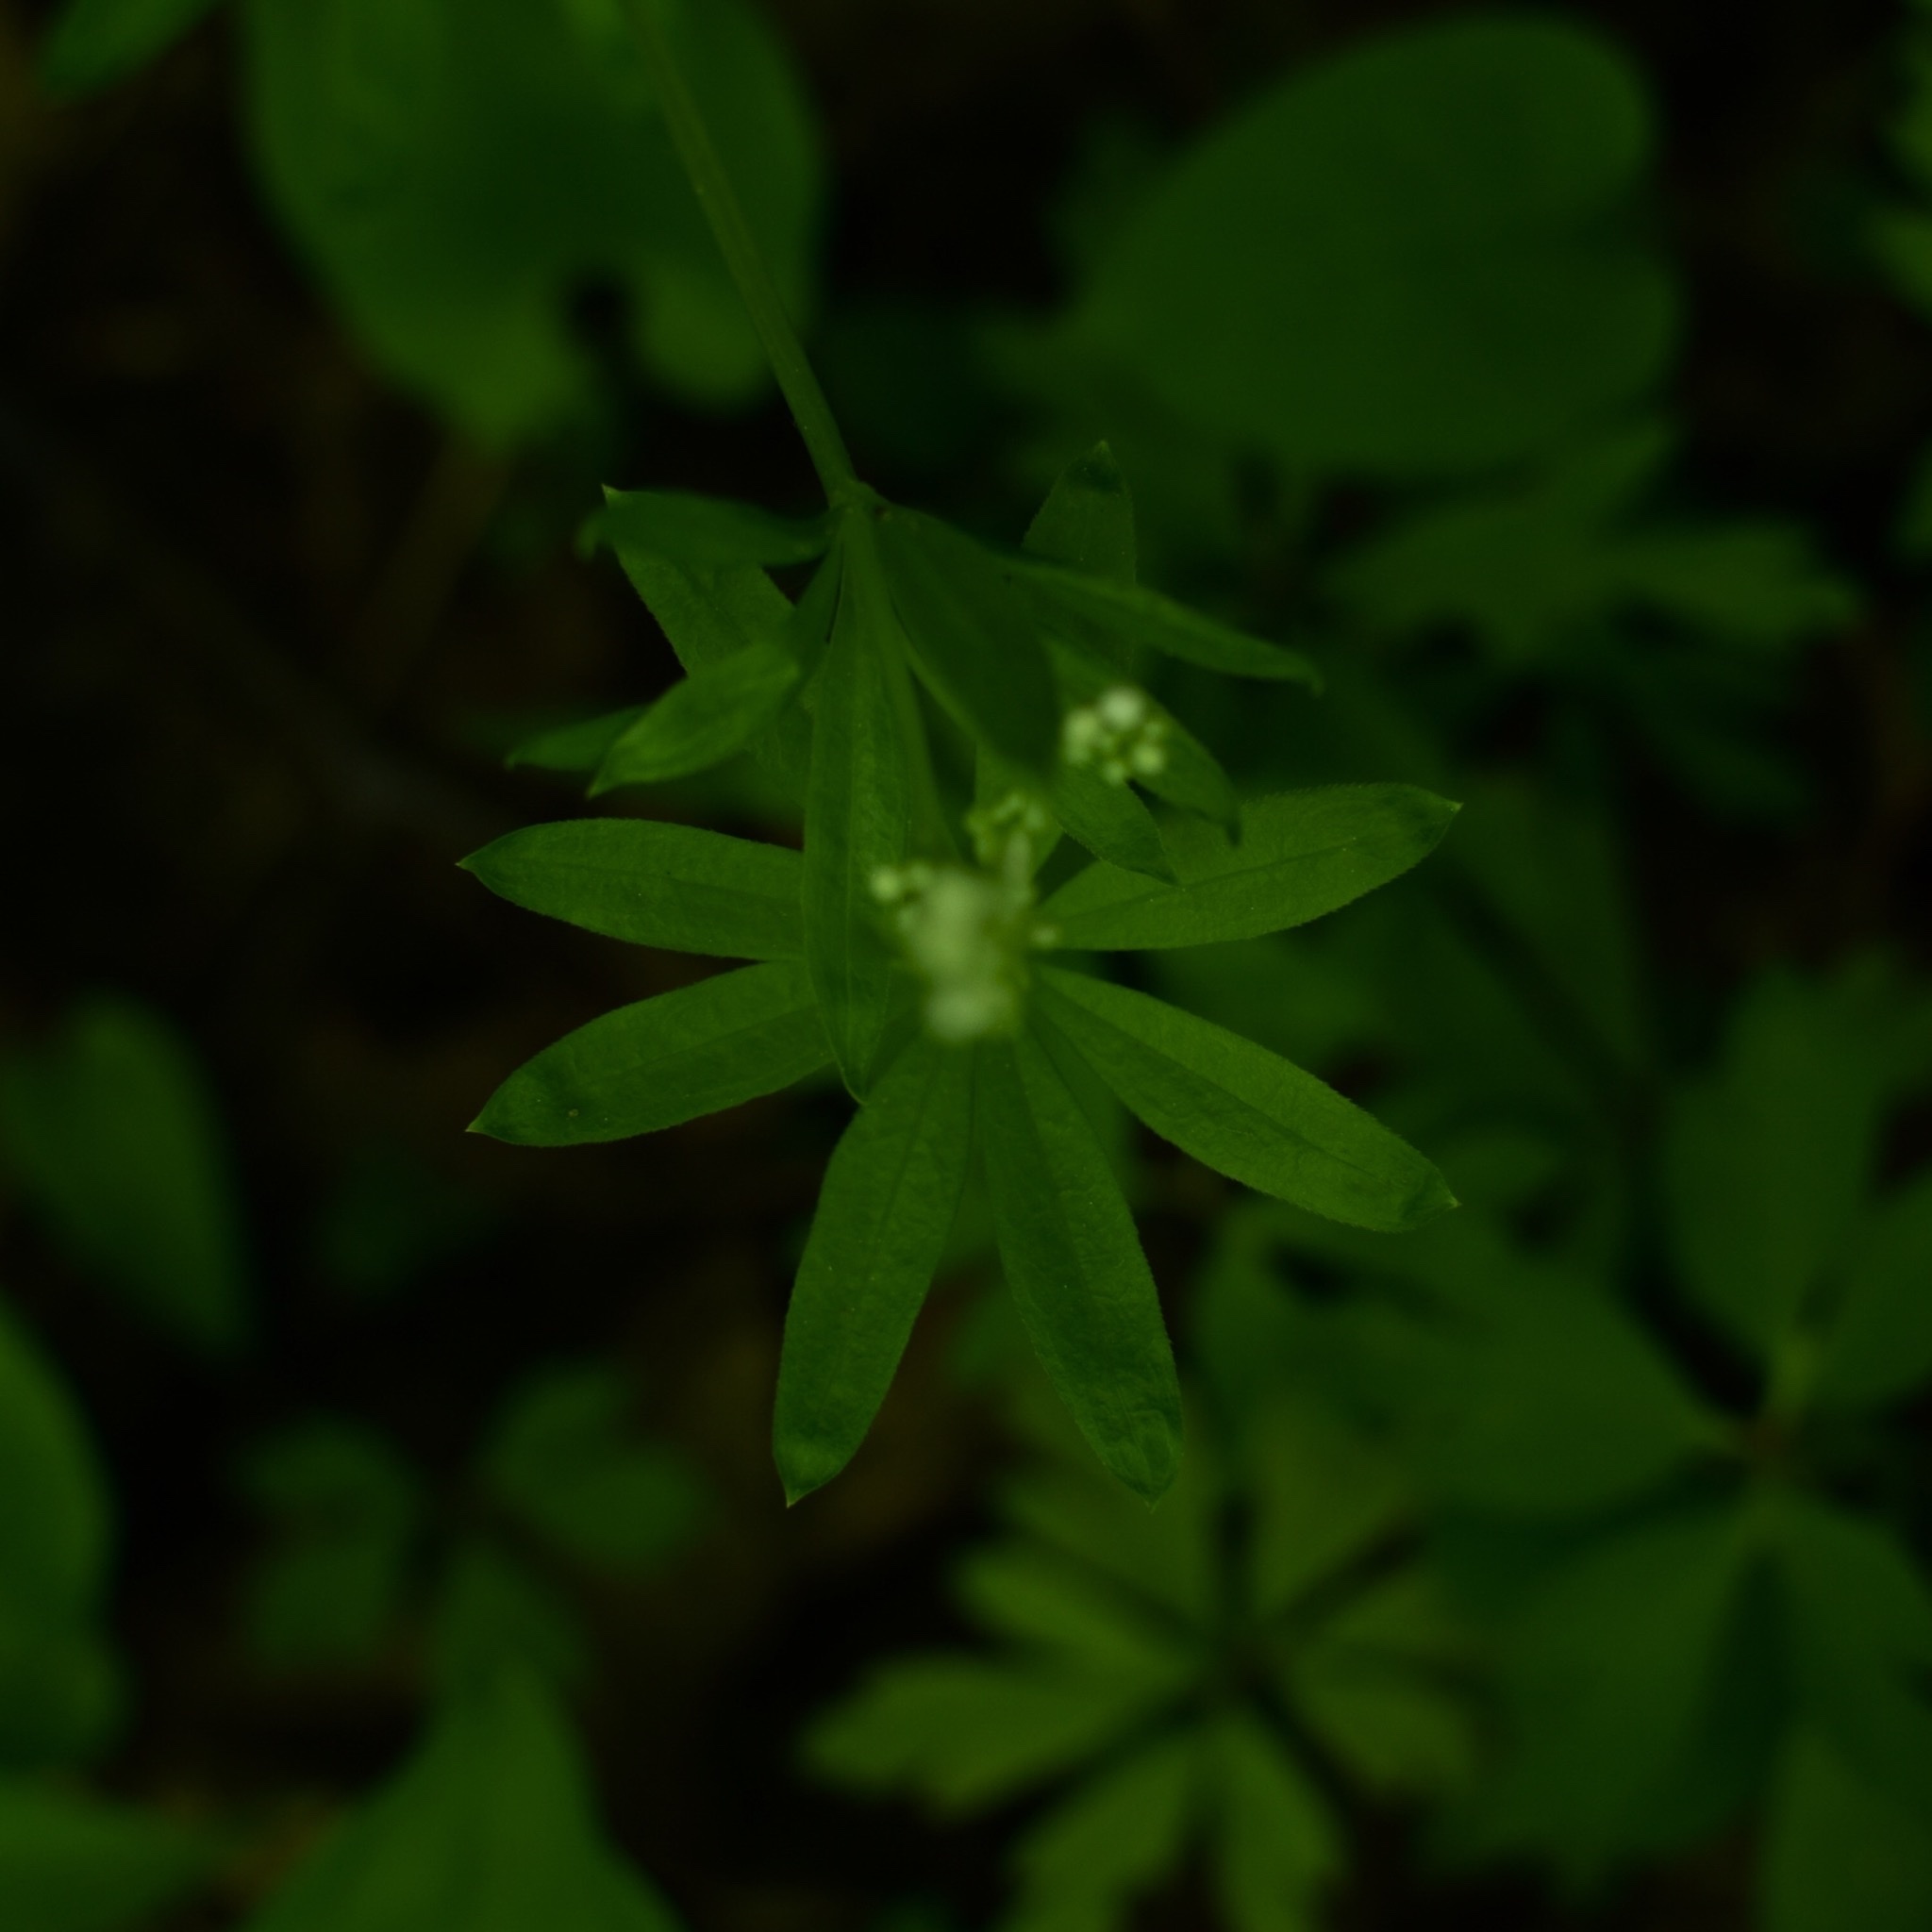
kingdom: Plantae
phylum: Tracheophyta
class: Magnoliopsida
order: Gentianales
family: Rubiaceae
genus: Galium
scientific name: Galium odoratum
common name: Sweet woodruff
